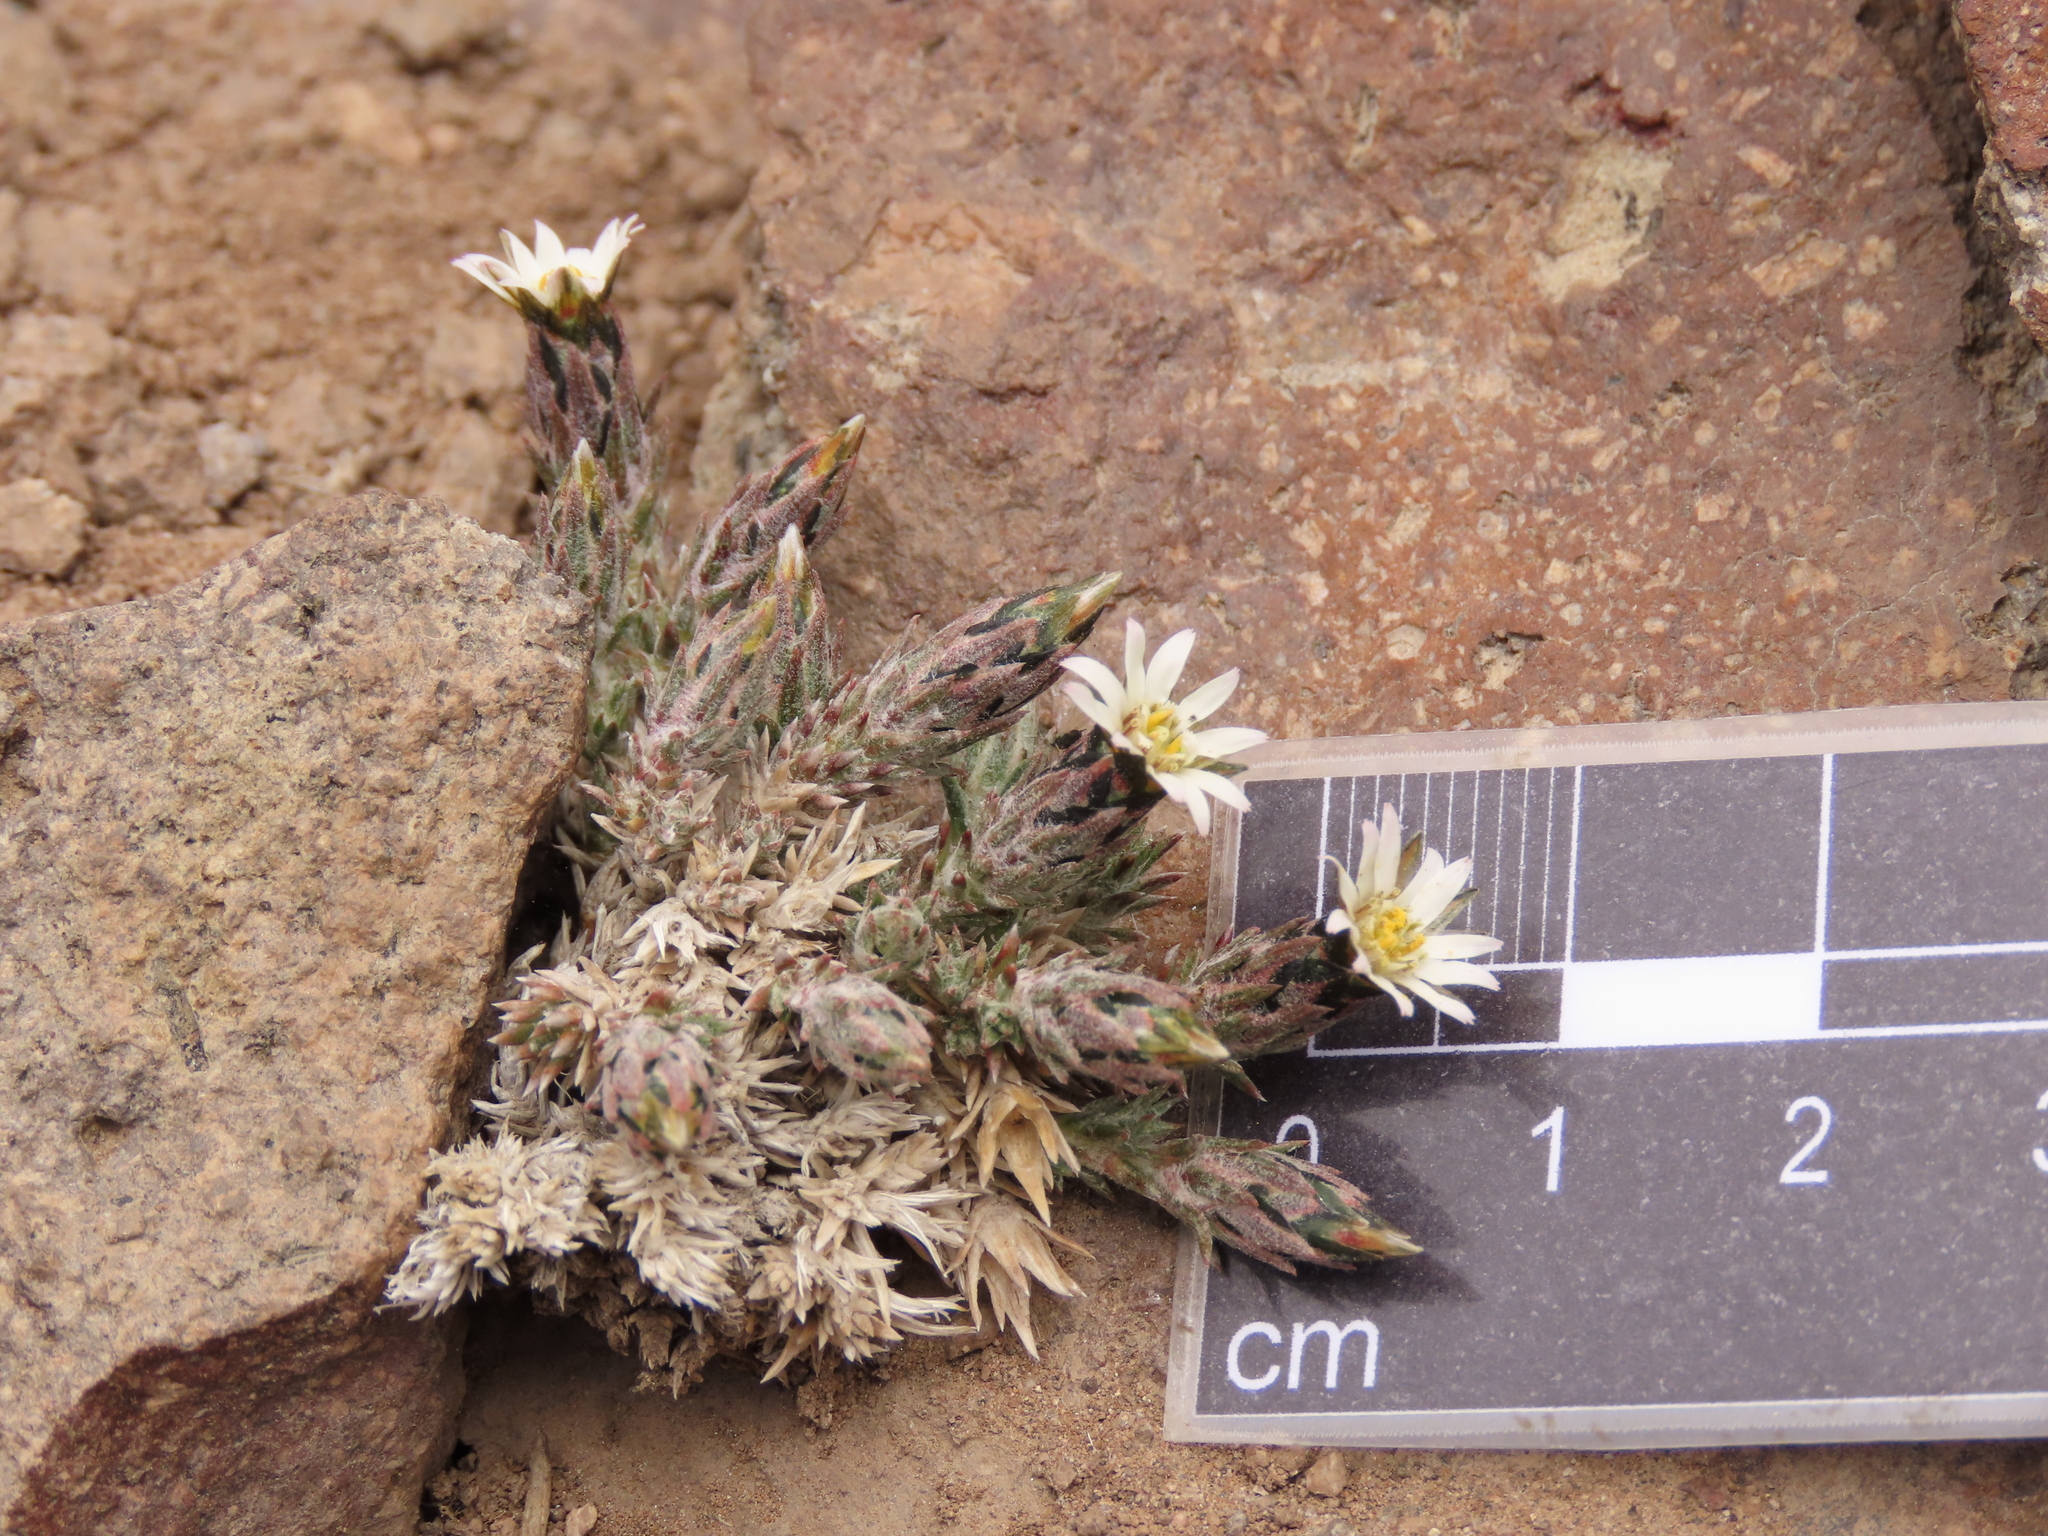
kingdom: Plantae
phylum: Tracheophyta
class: Magnoliopsida
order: Asterales
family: Asteraceae
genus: Oriastrum
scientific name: Oriastrum dioicum
